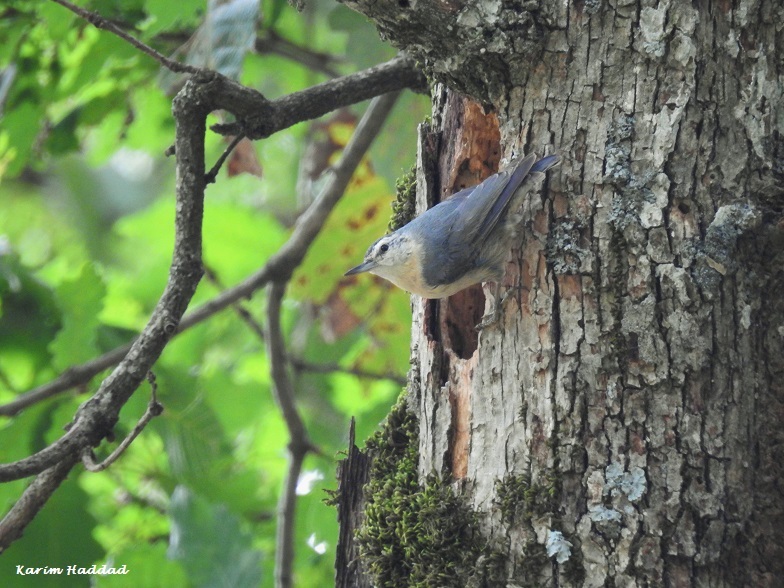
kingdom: Animalia
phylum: Chordata
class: Aves
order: Passeriformes
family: Sittidae
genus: Sitta
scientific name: Sitta ledanti
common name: Algerian nuthatch
